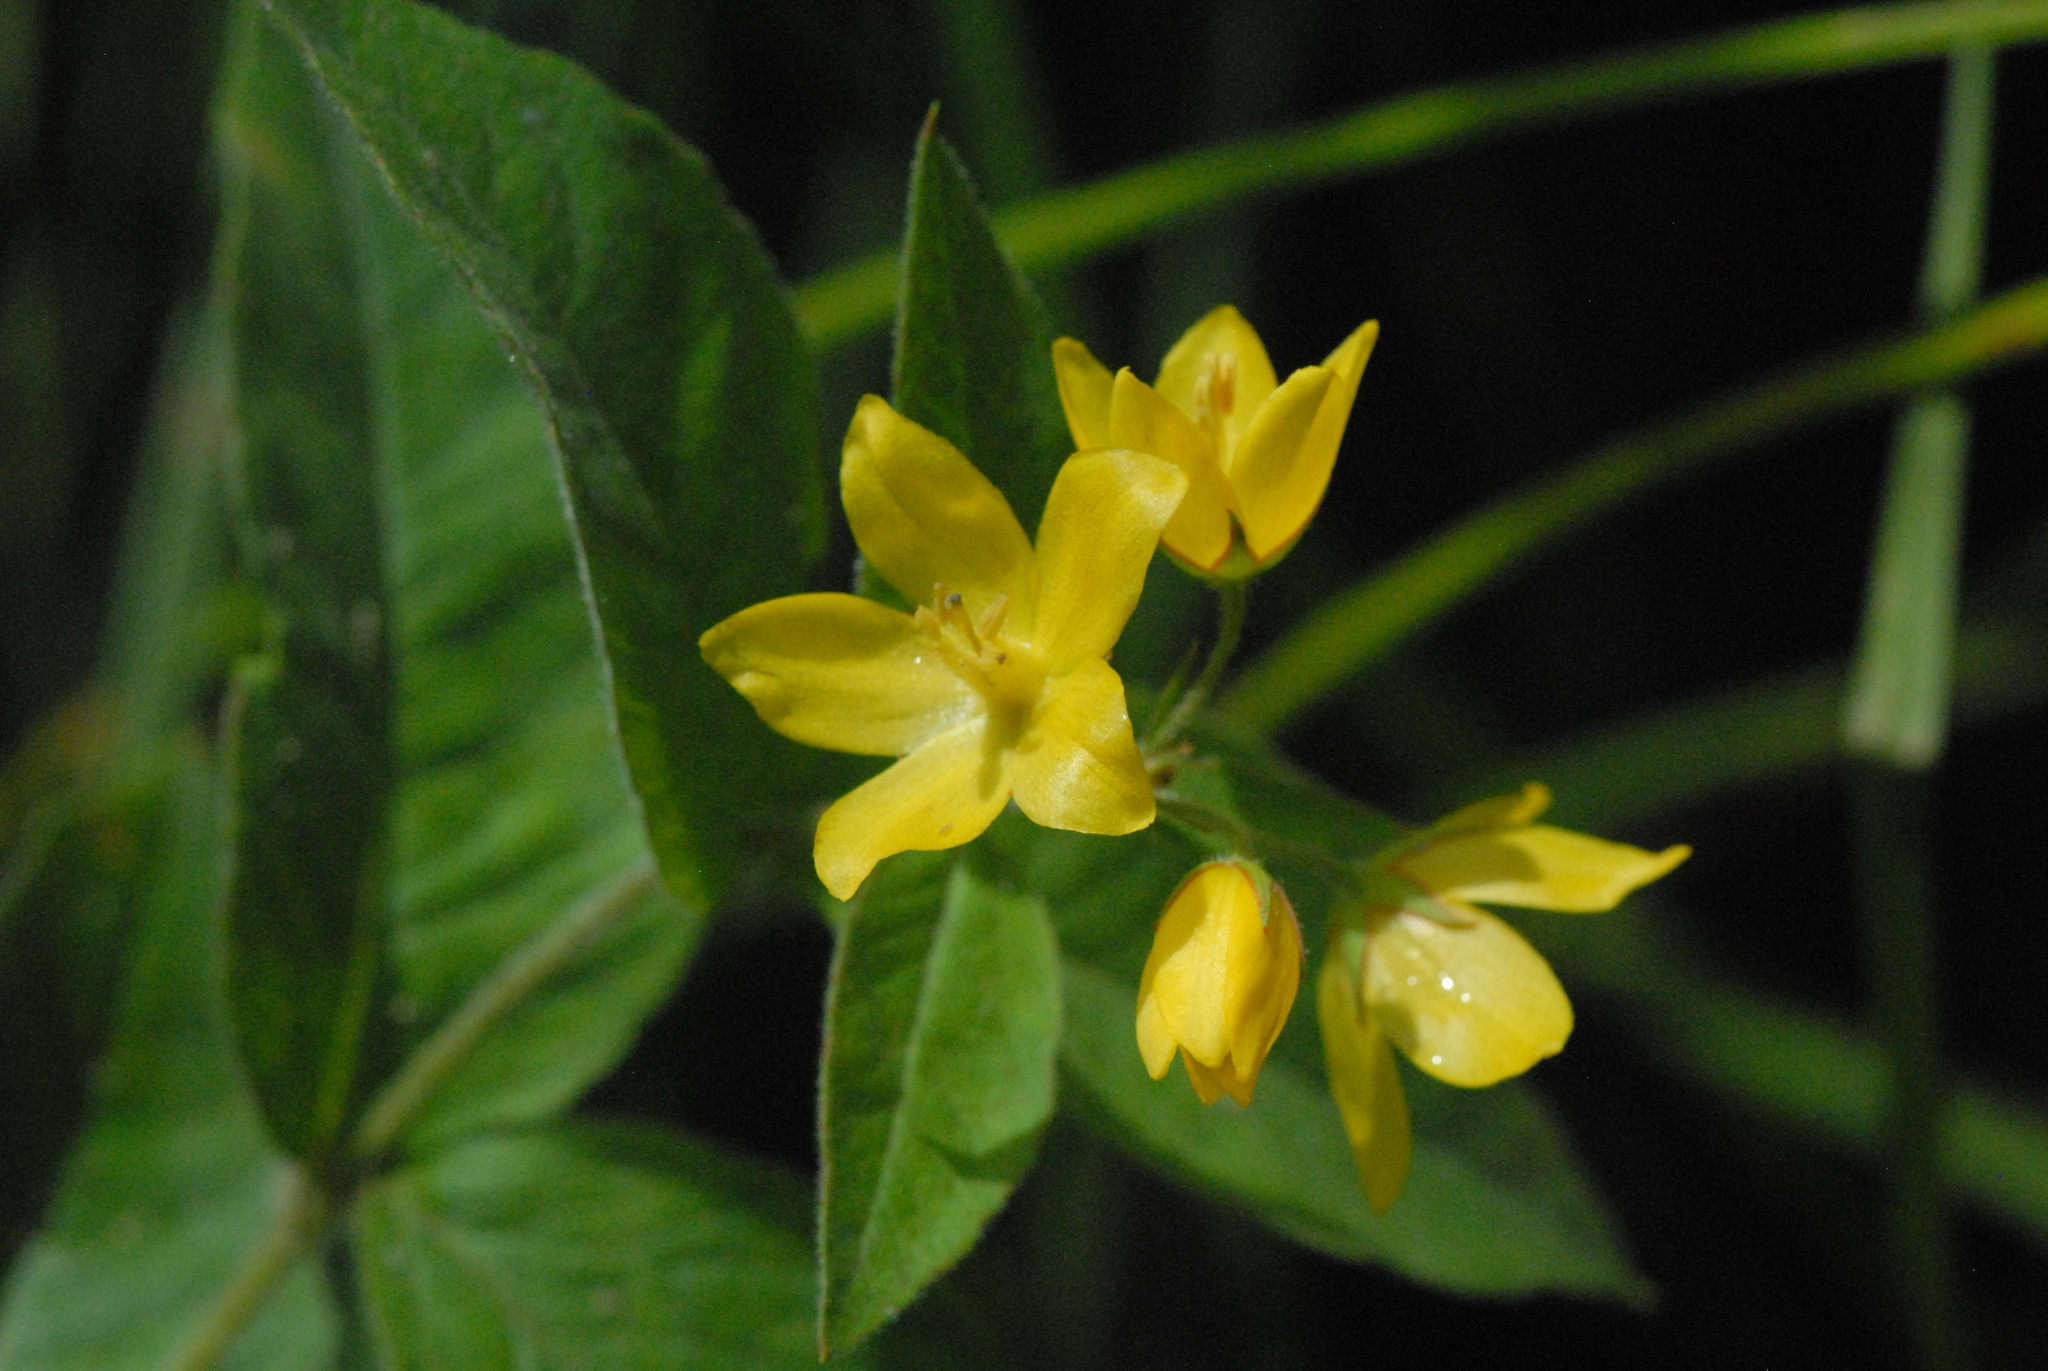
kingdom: Plantae
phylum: Tracheophyta
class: Magnoliopsida
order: Ericales
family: Primulaceae
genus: Lysimachia
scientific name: Lysimachia vulgaris
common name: Yellow loosestrife
